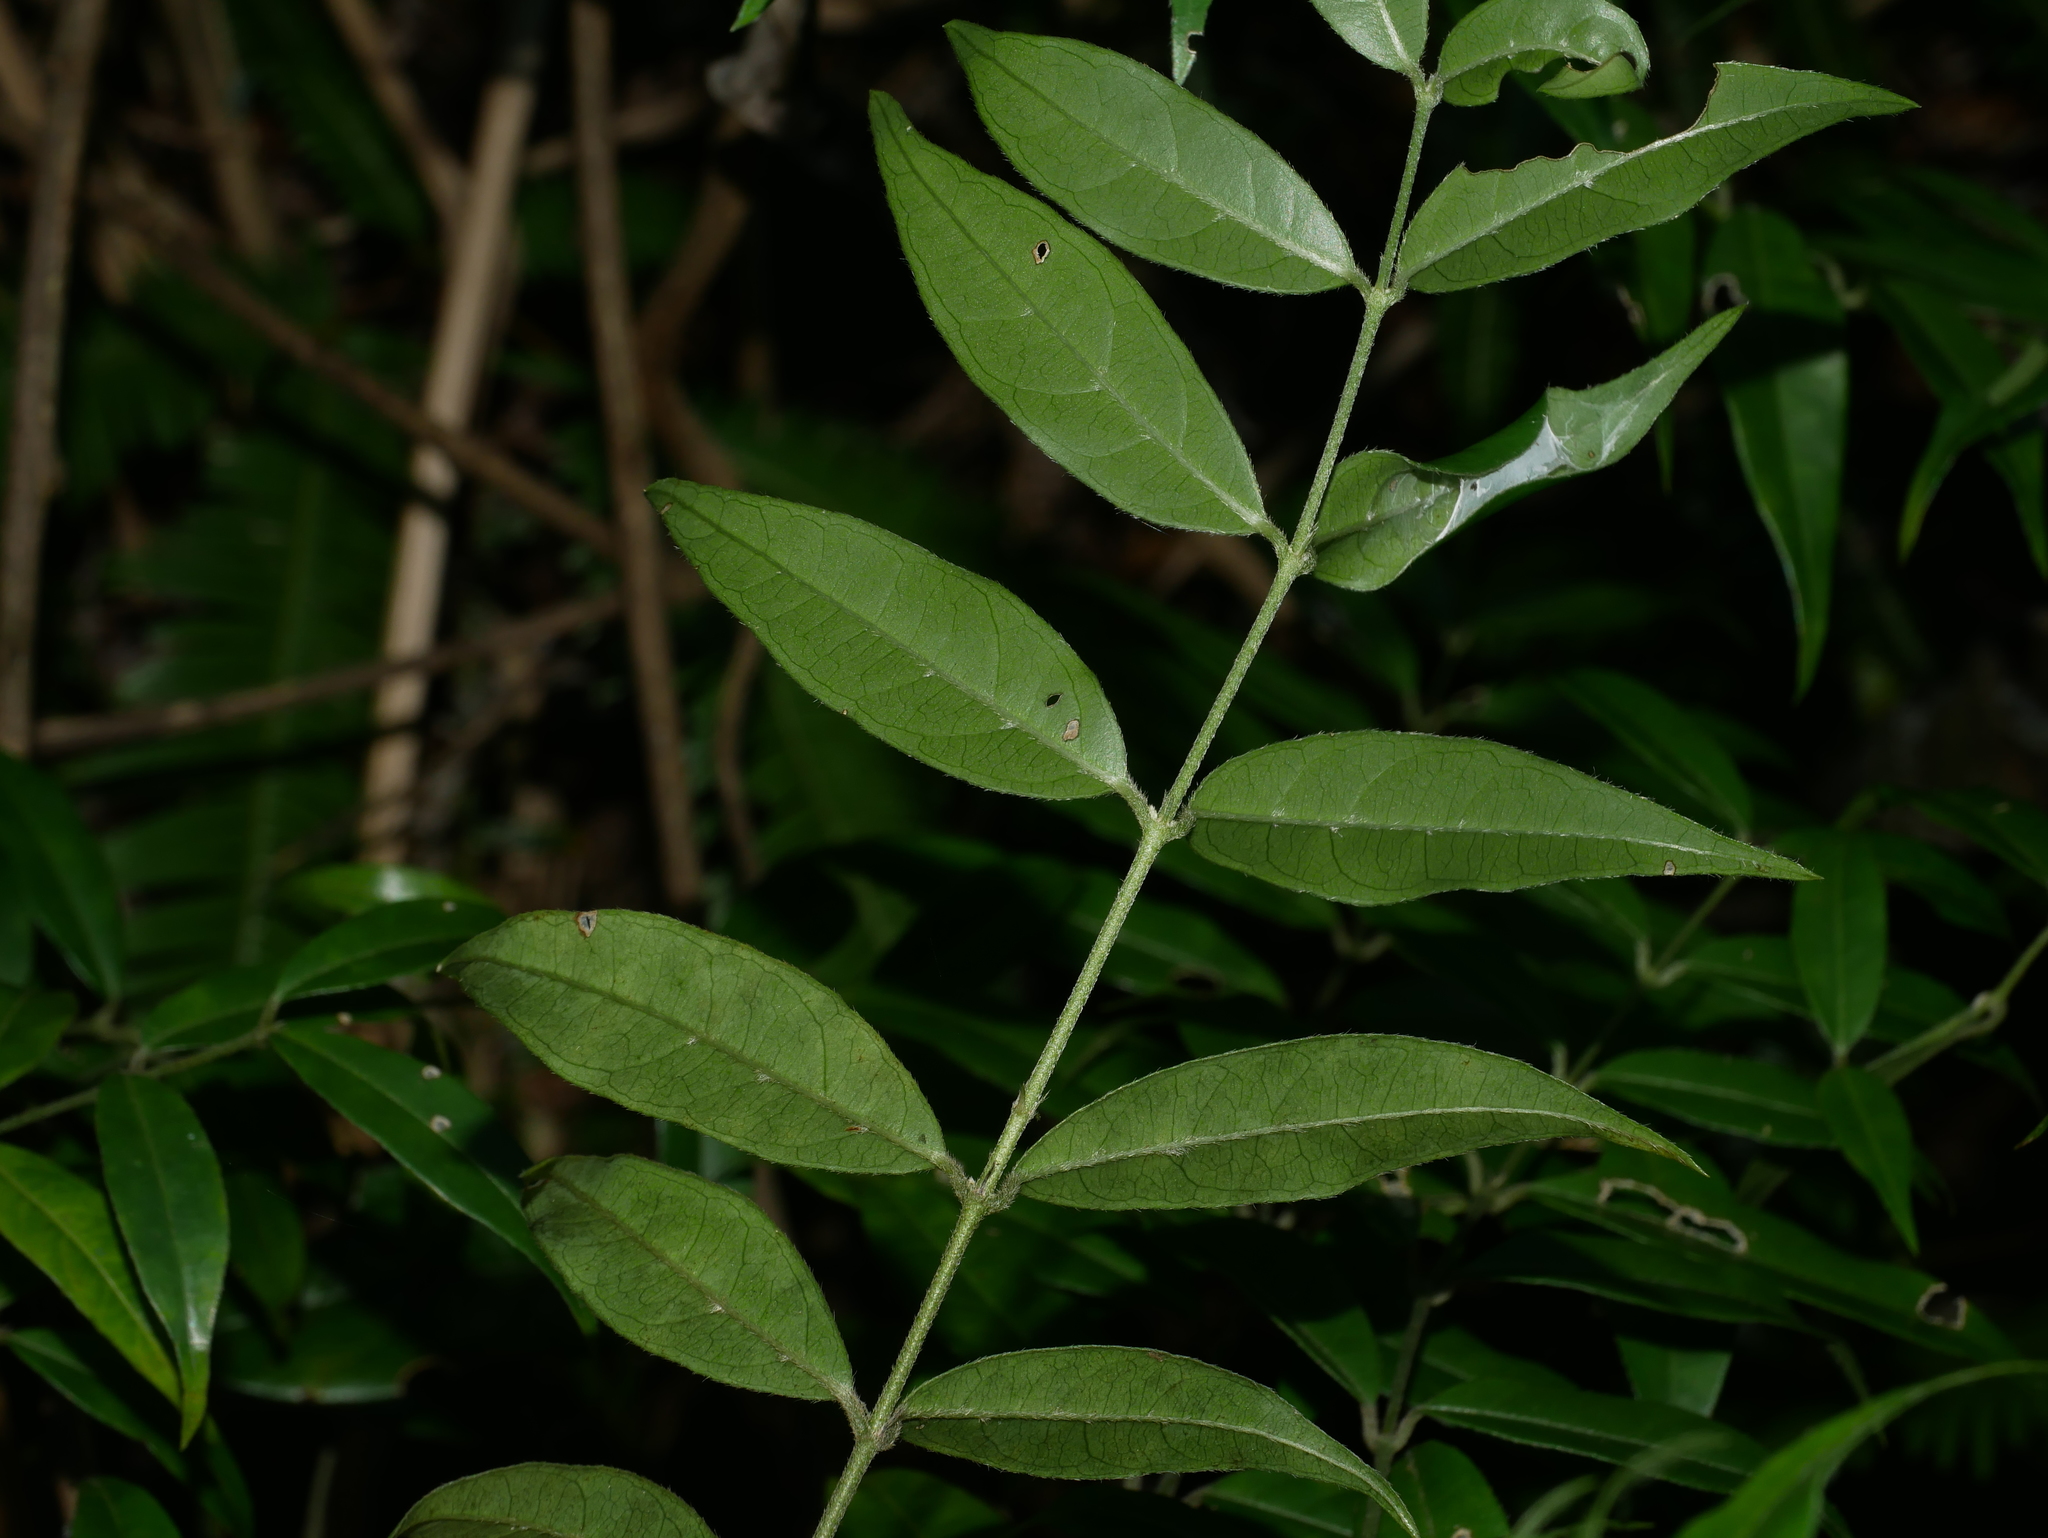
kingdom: Plantae
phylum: Tracheophyta
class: Magnoliopsida
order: Gentianales
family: Rubiaceae
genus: Coptosapelta
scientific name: Coptosapelta diffusa
